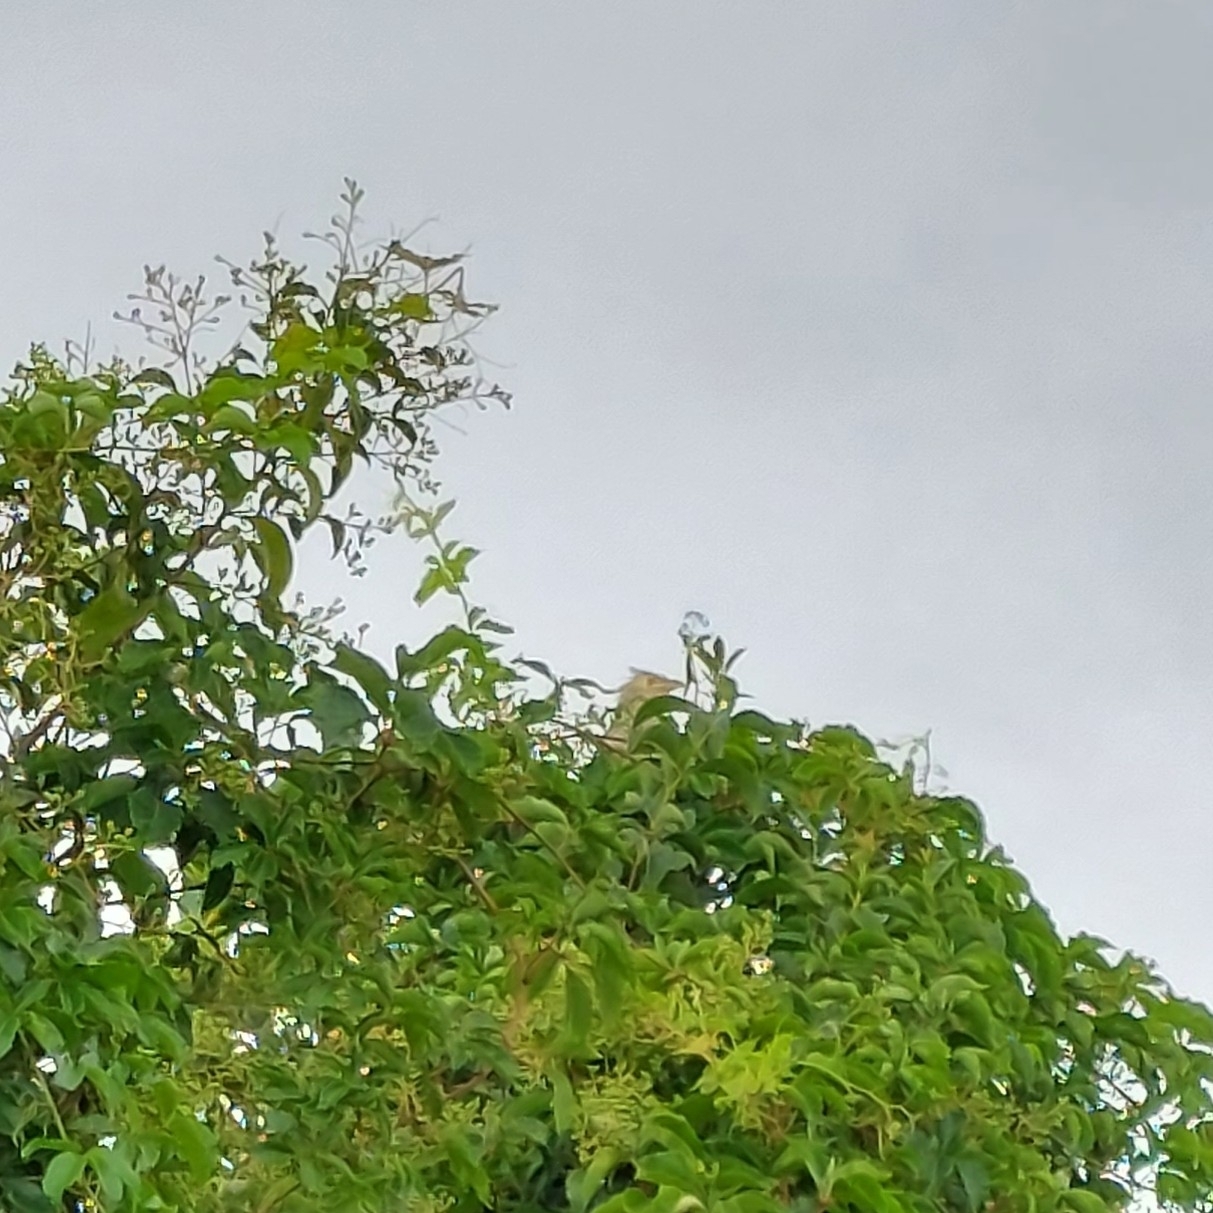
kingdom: Animalia
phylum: Chordata
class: Aves
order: Cuculiformes
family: Cuculidae
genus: Guira
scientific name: Guira guira
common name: Guira cuckoo
